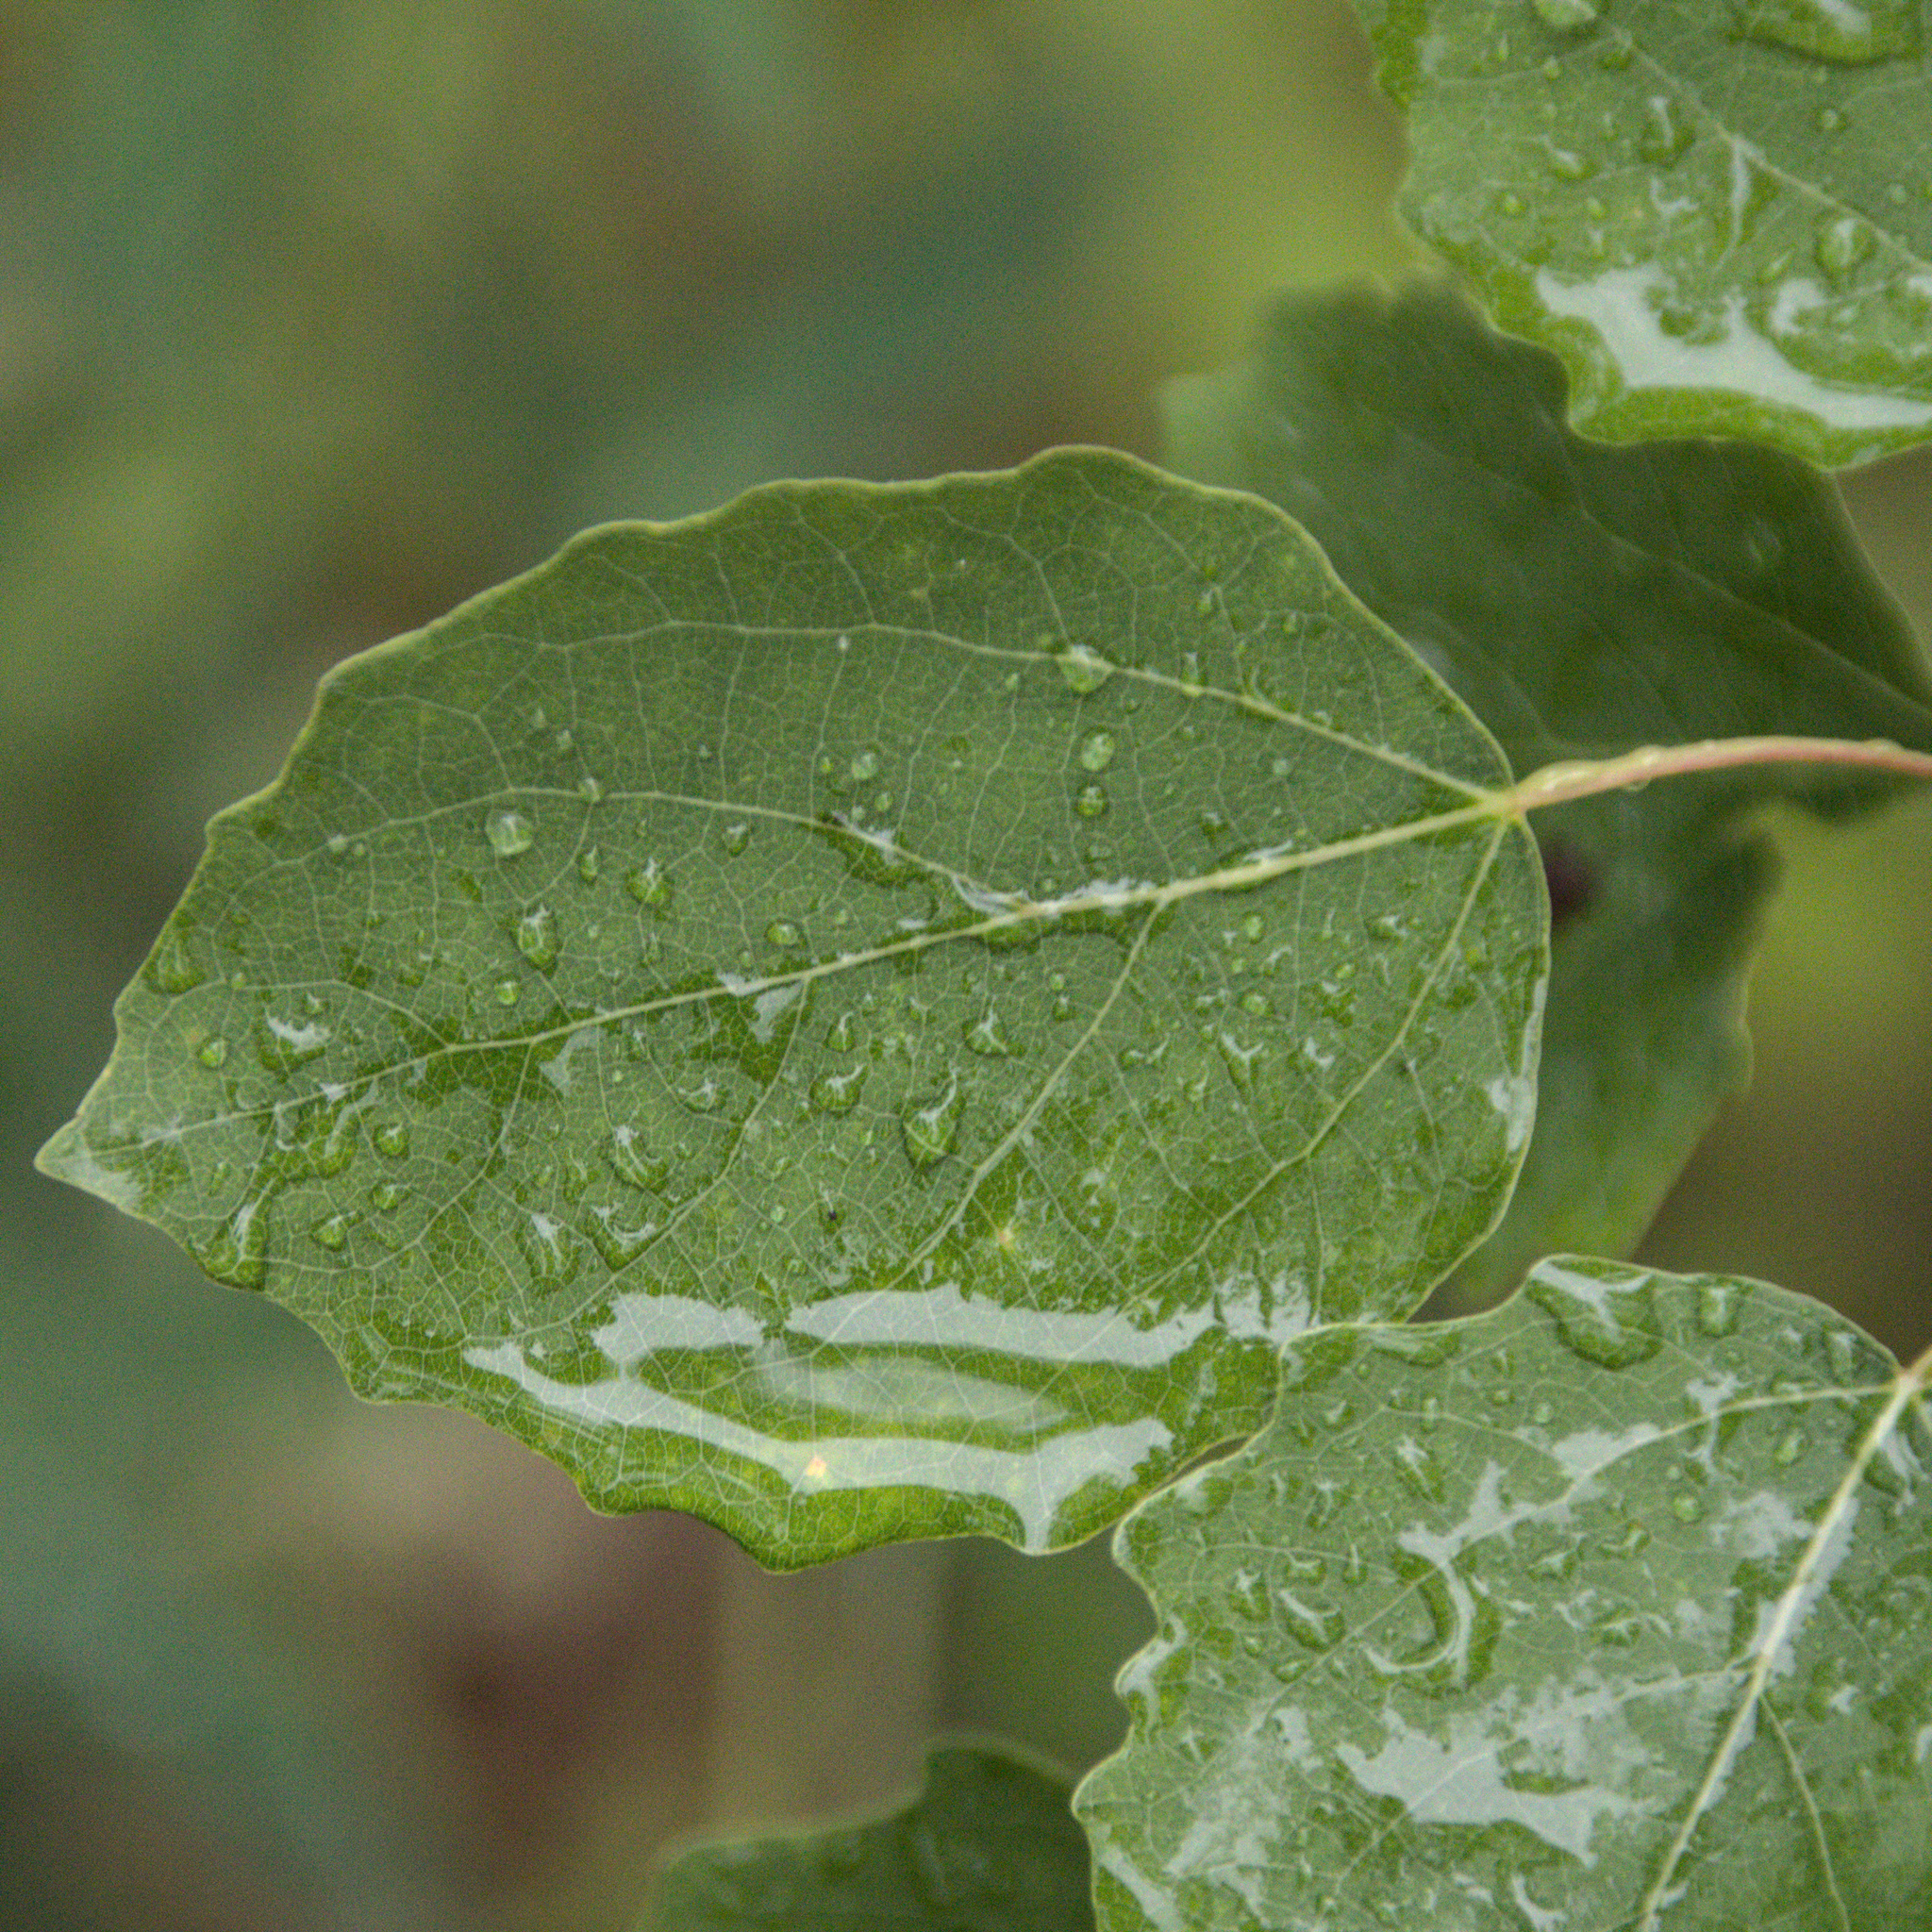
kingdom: Plantae
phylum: Tracheophyta
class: Magnoliopsida
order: Malpighiales
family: Salicaceae
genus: Populus
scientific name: Populus tremula
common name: European aspen
